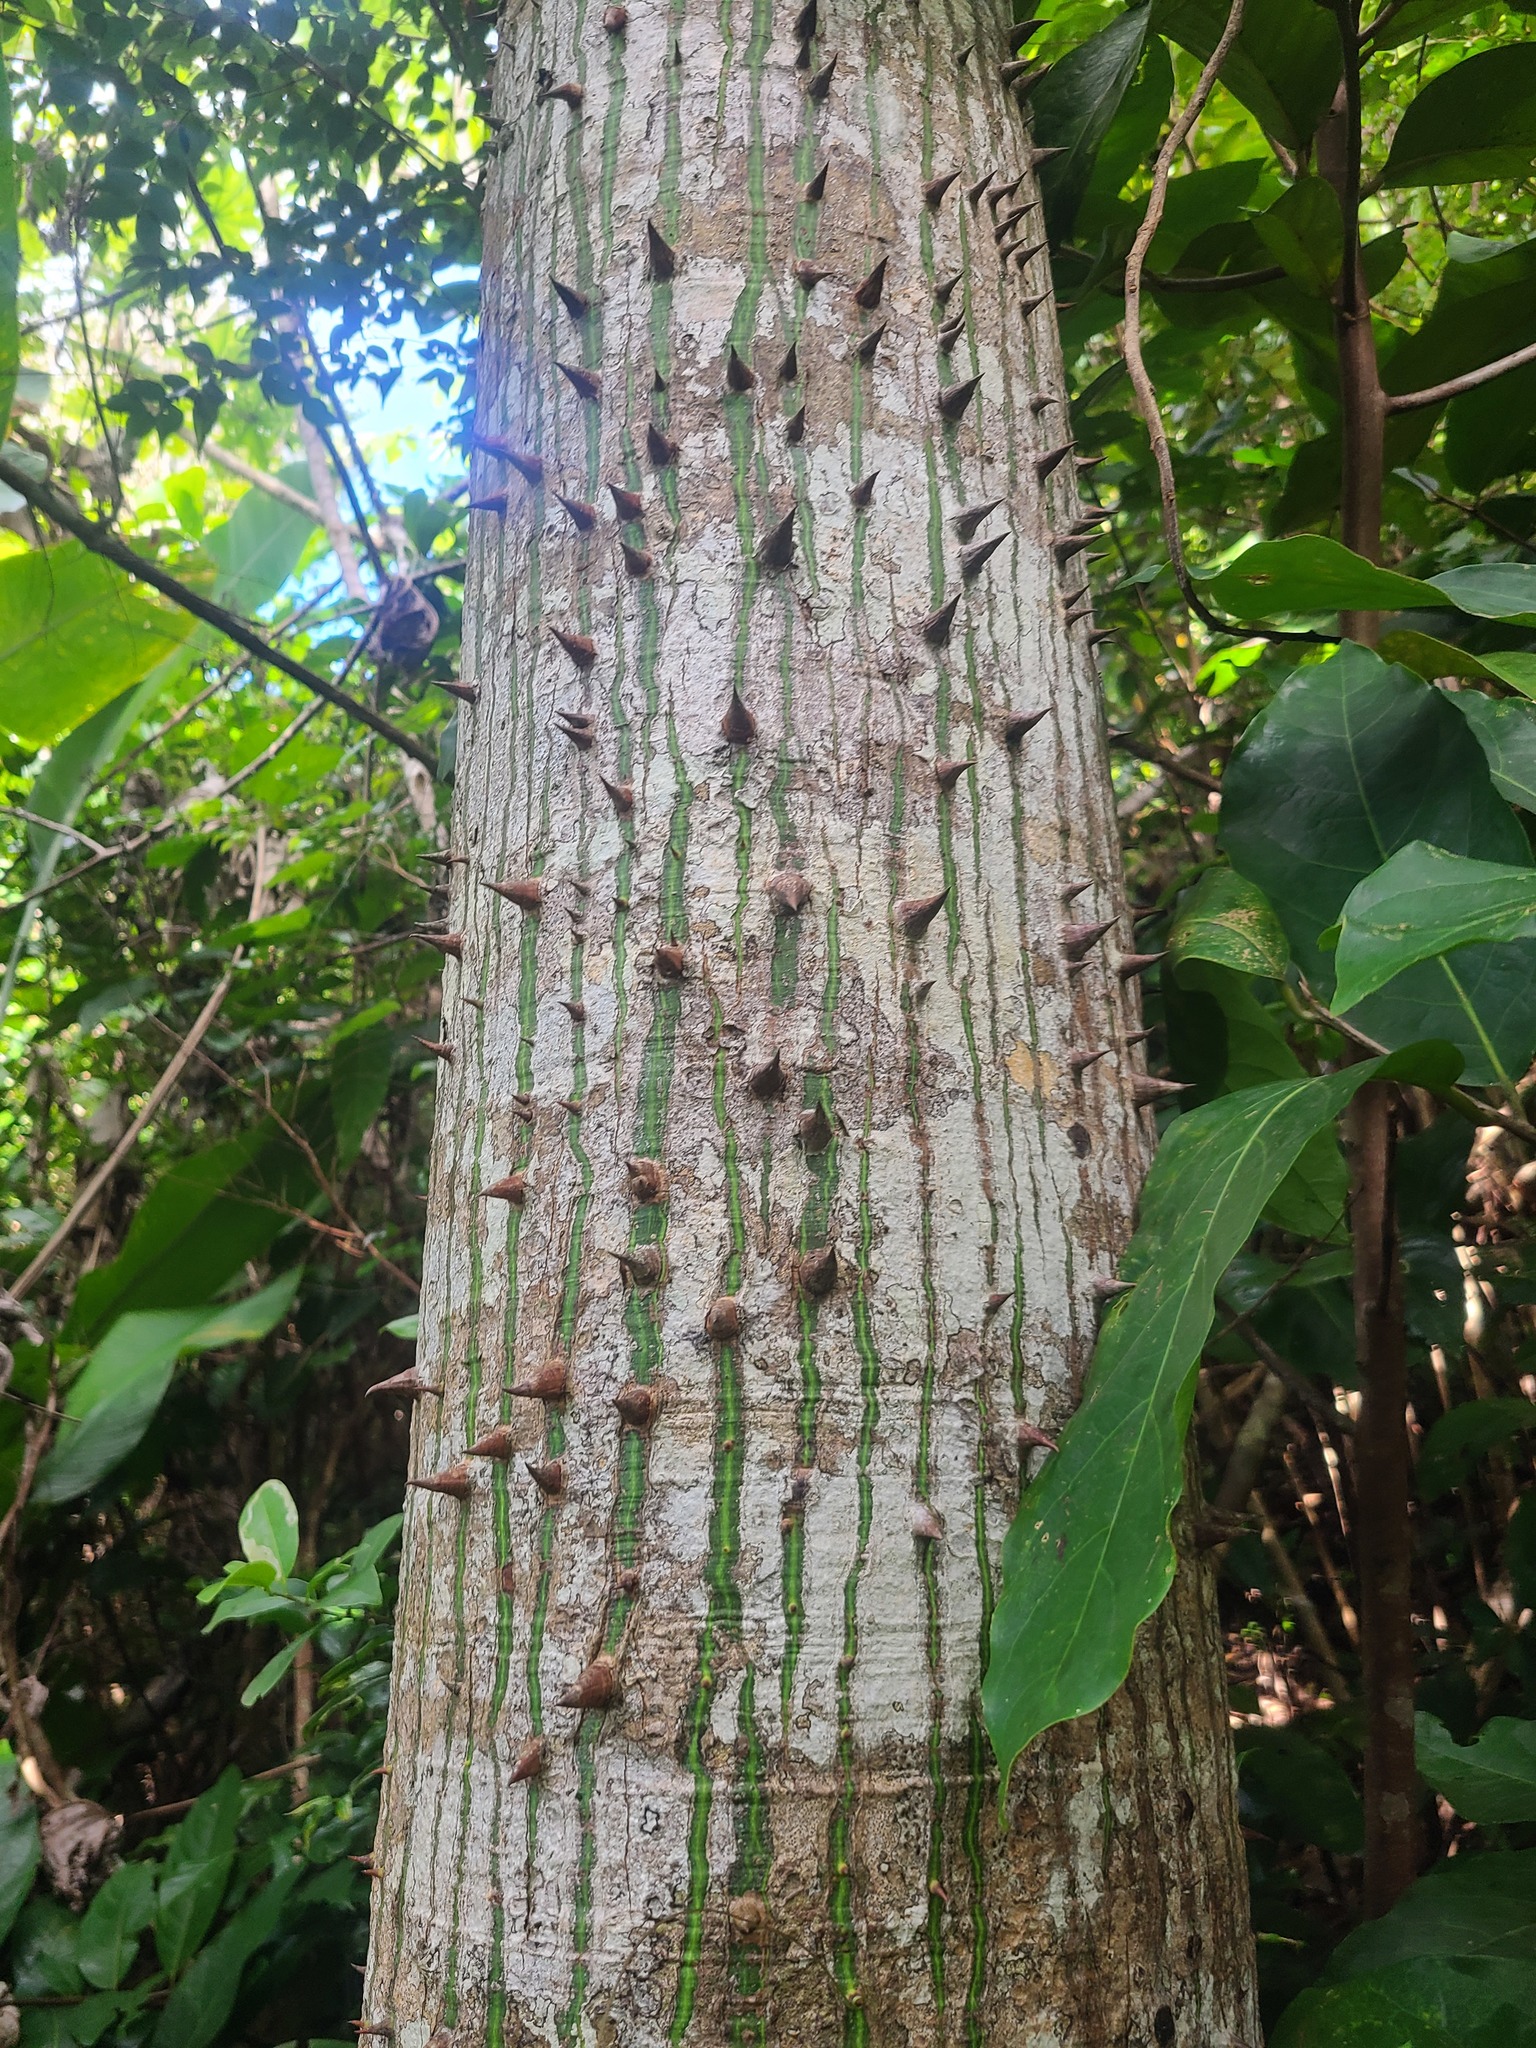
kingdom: Plantae
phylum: Tracheophyta
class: Magnoliopsida
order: Malvales
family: Malvaceae
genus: Ceiba
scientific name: Ceiba pentandra
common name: Kapok
